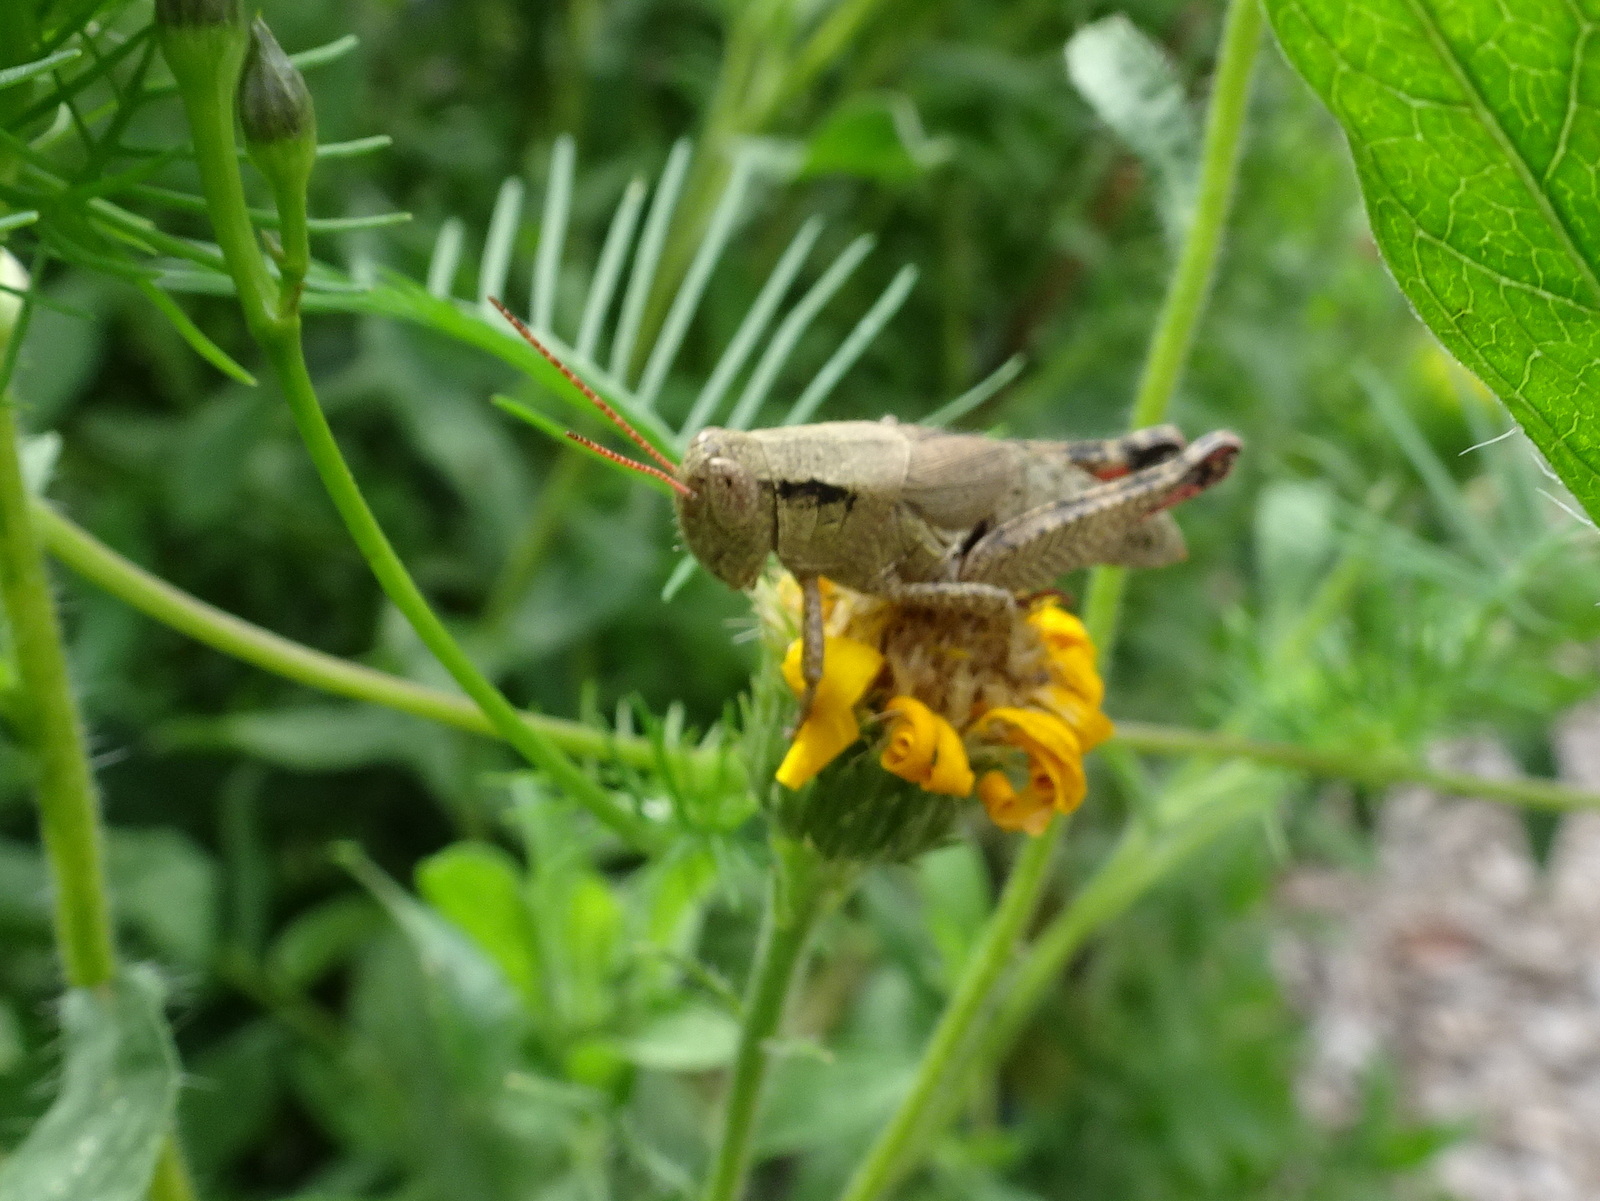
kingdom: Animalia
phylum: Arthropoda
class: Insecta
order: Orthoptera
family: Acrididae
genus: Melanoplus
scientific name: Melanoplus scudderi
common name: Scudder's short-winged locust
